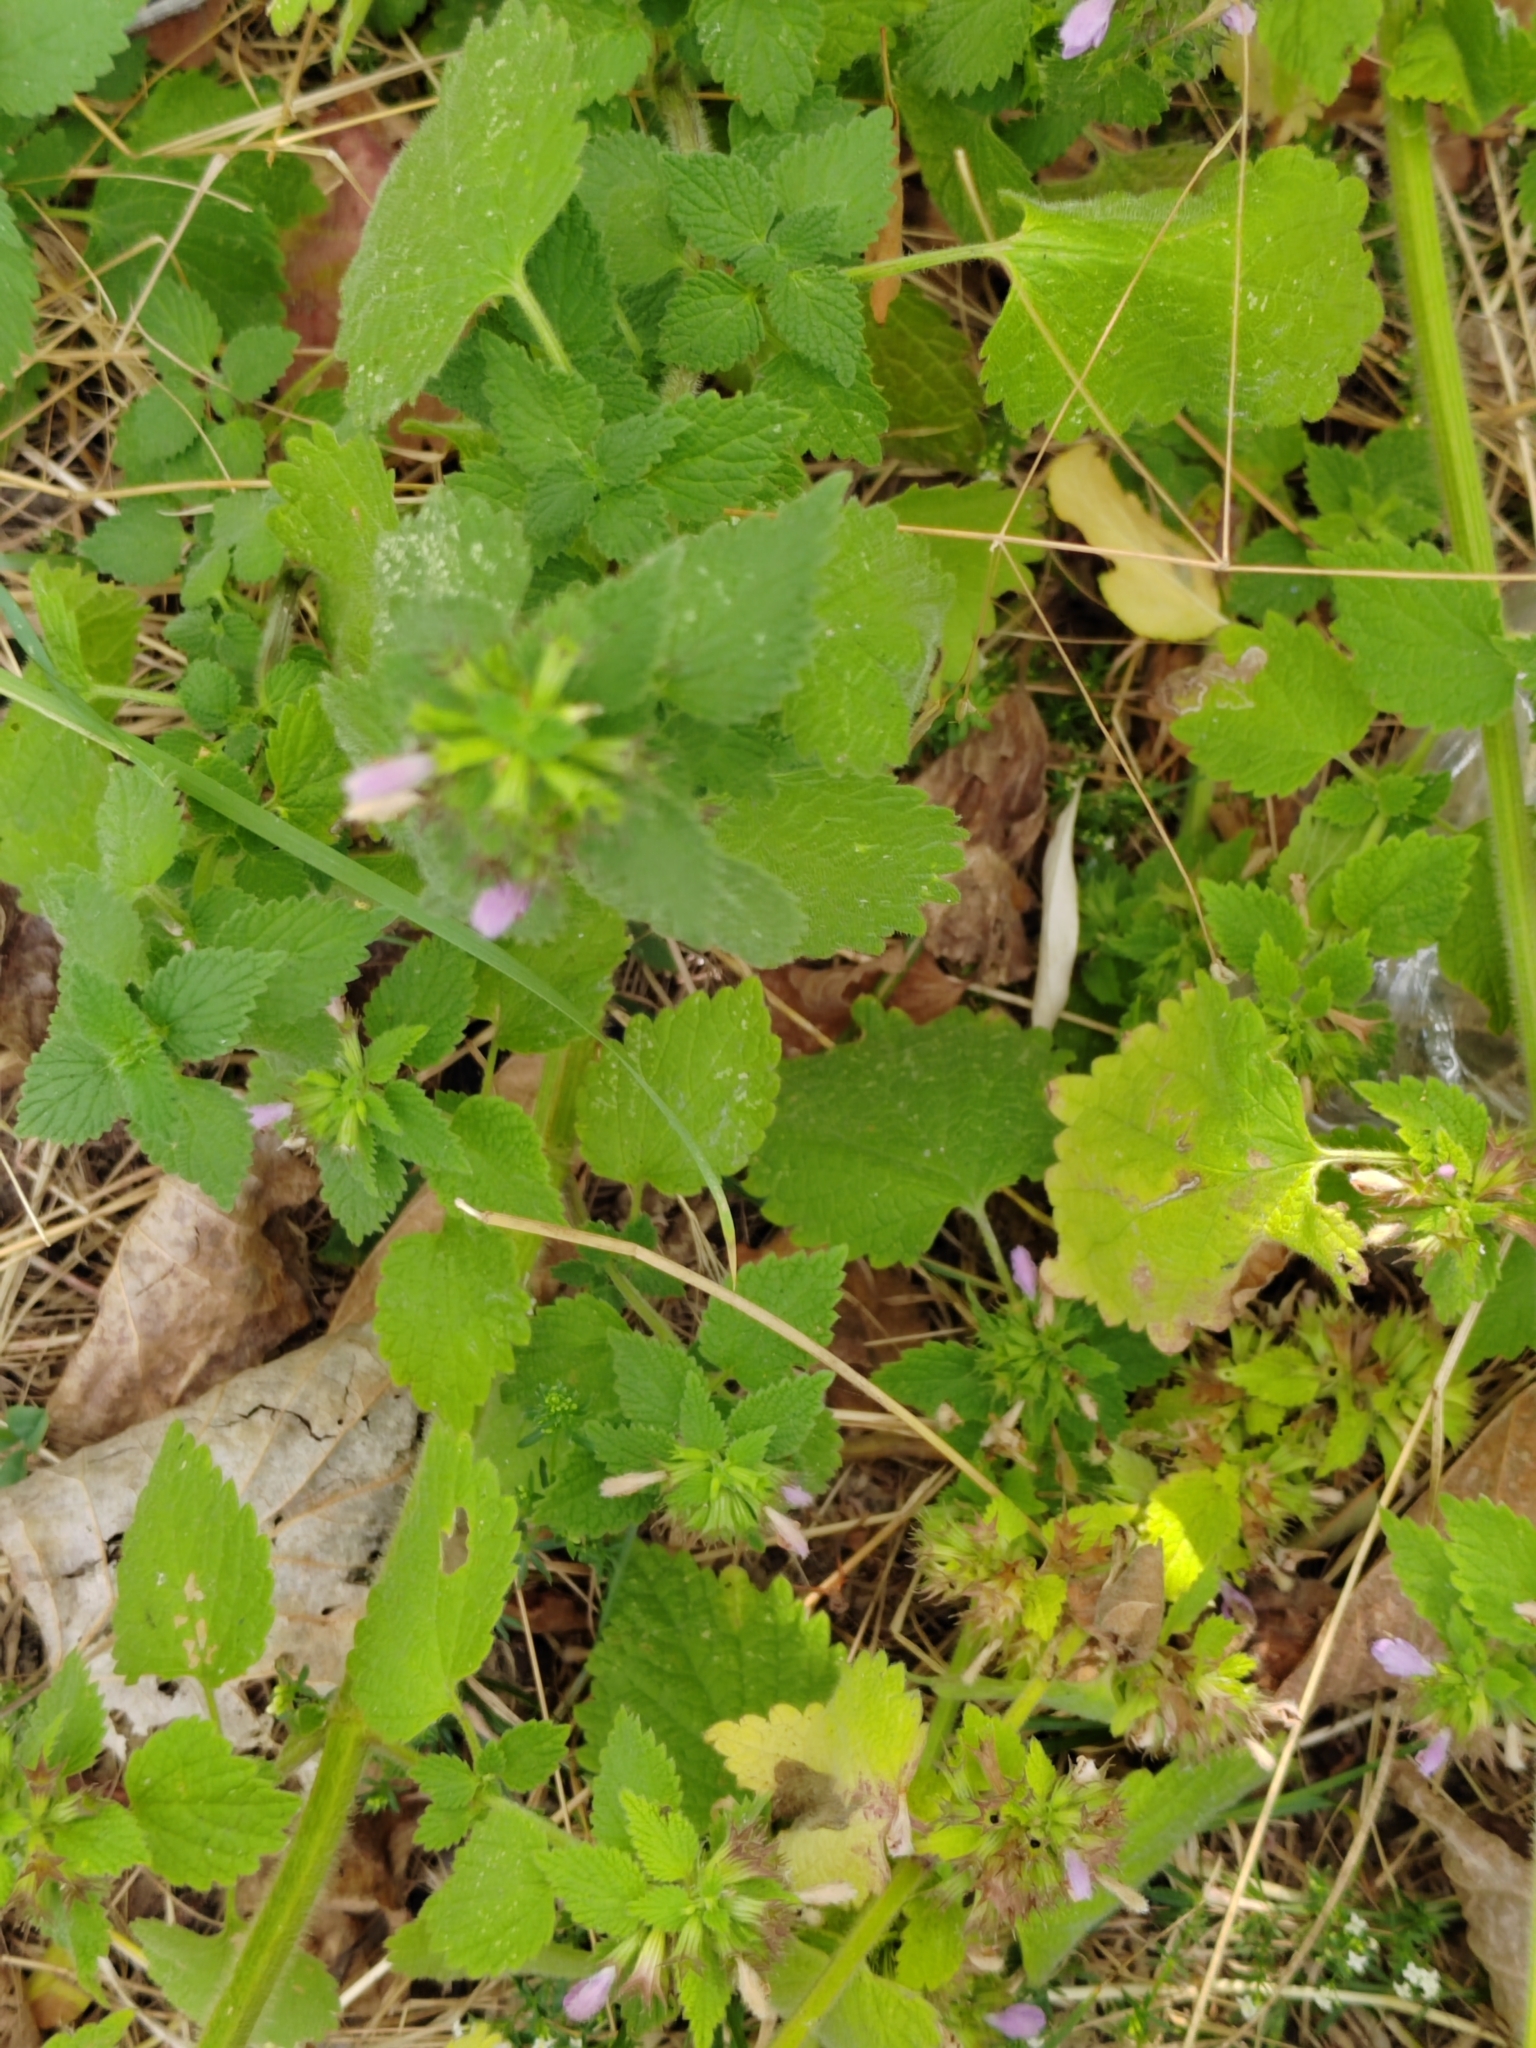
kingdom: Plantae
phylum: Tracheophyta
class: Magnoliopsida
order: Lamiales
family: Lamiaceae
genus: Ballota
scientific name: Ballota nigra
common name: Black horehound
